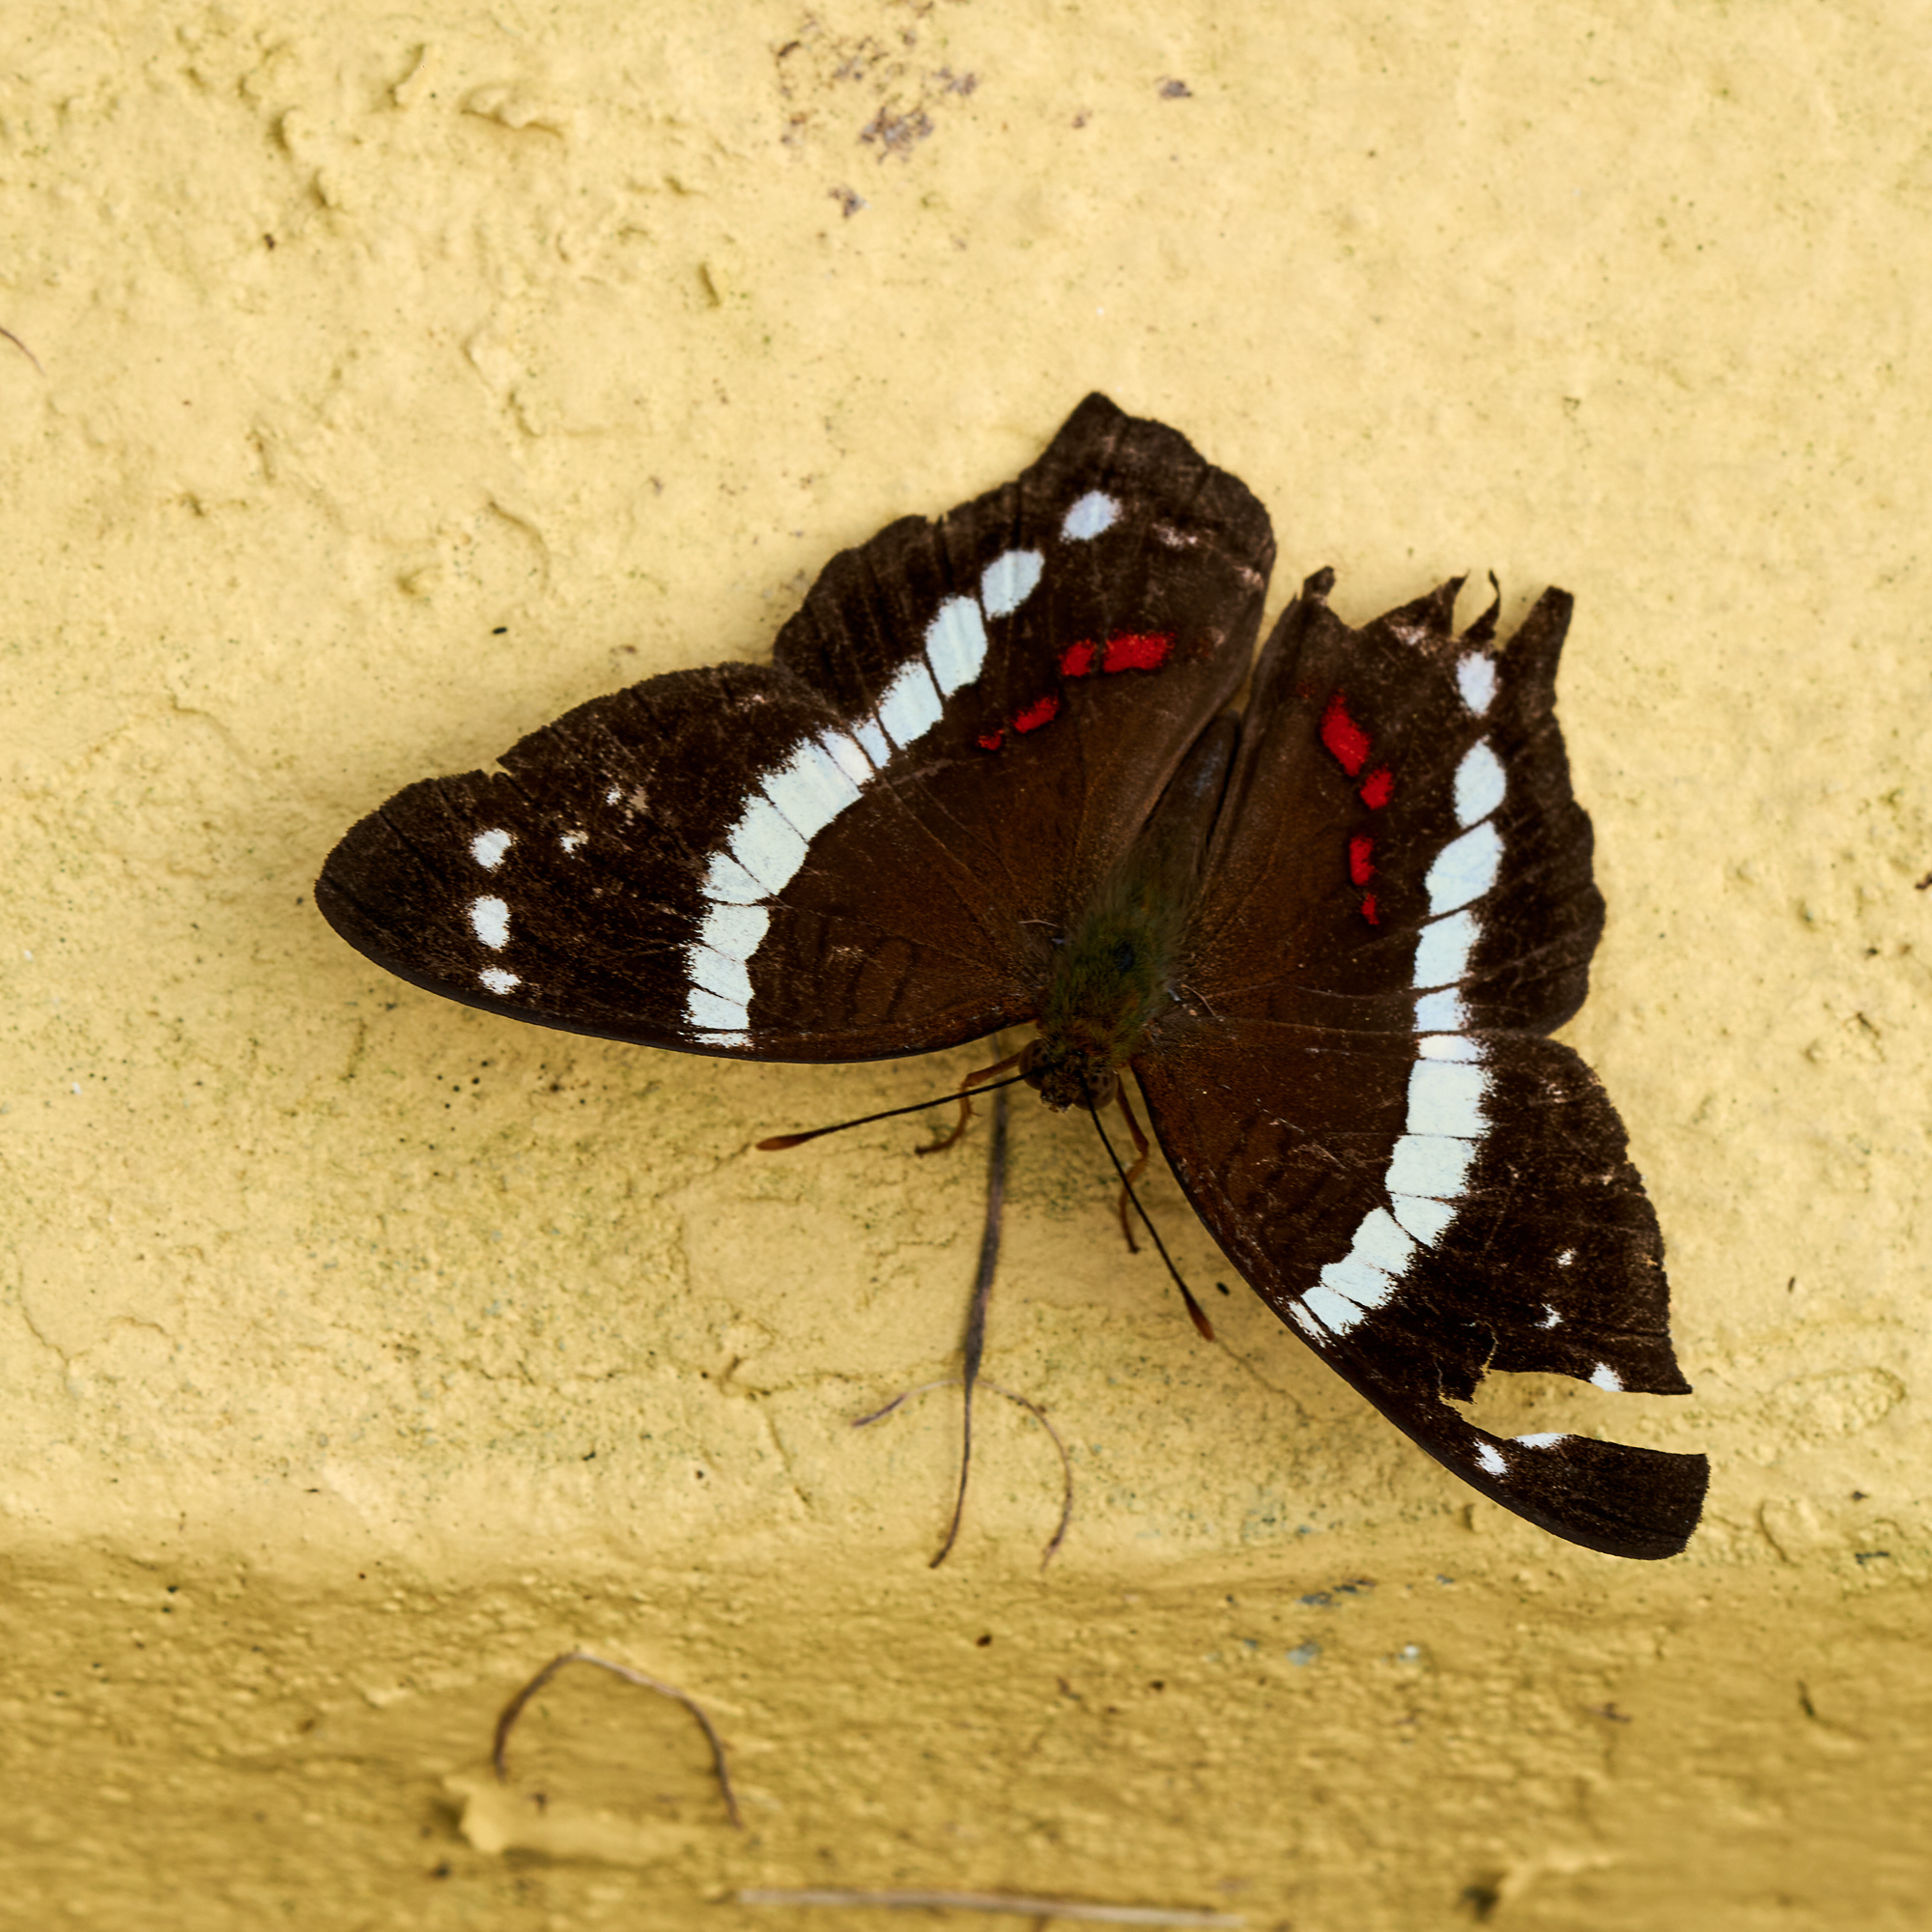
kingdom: Animalia
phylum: Arthropoda
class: Insecta
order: Lepidoptera
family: Nymphalidae
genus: Anartia
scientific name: Anartia fatima
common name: Banded peacock
